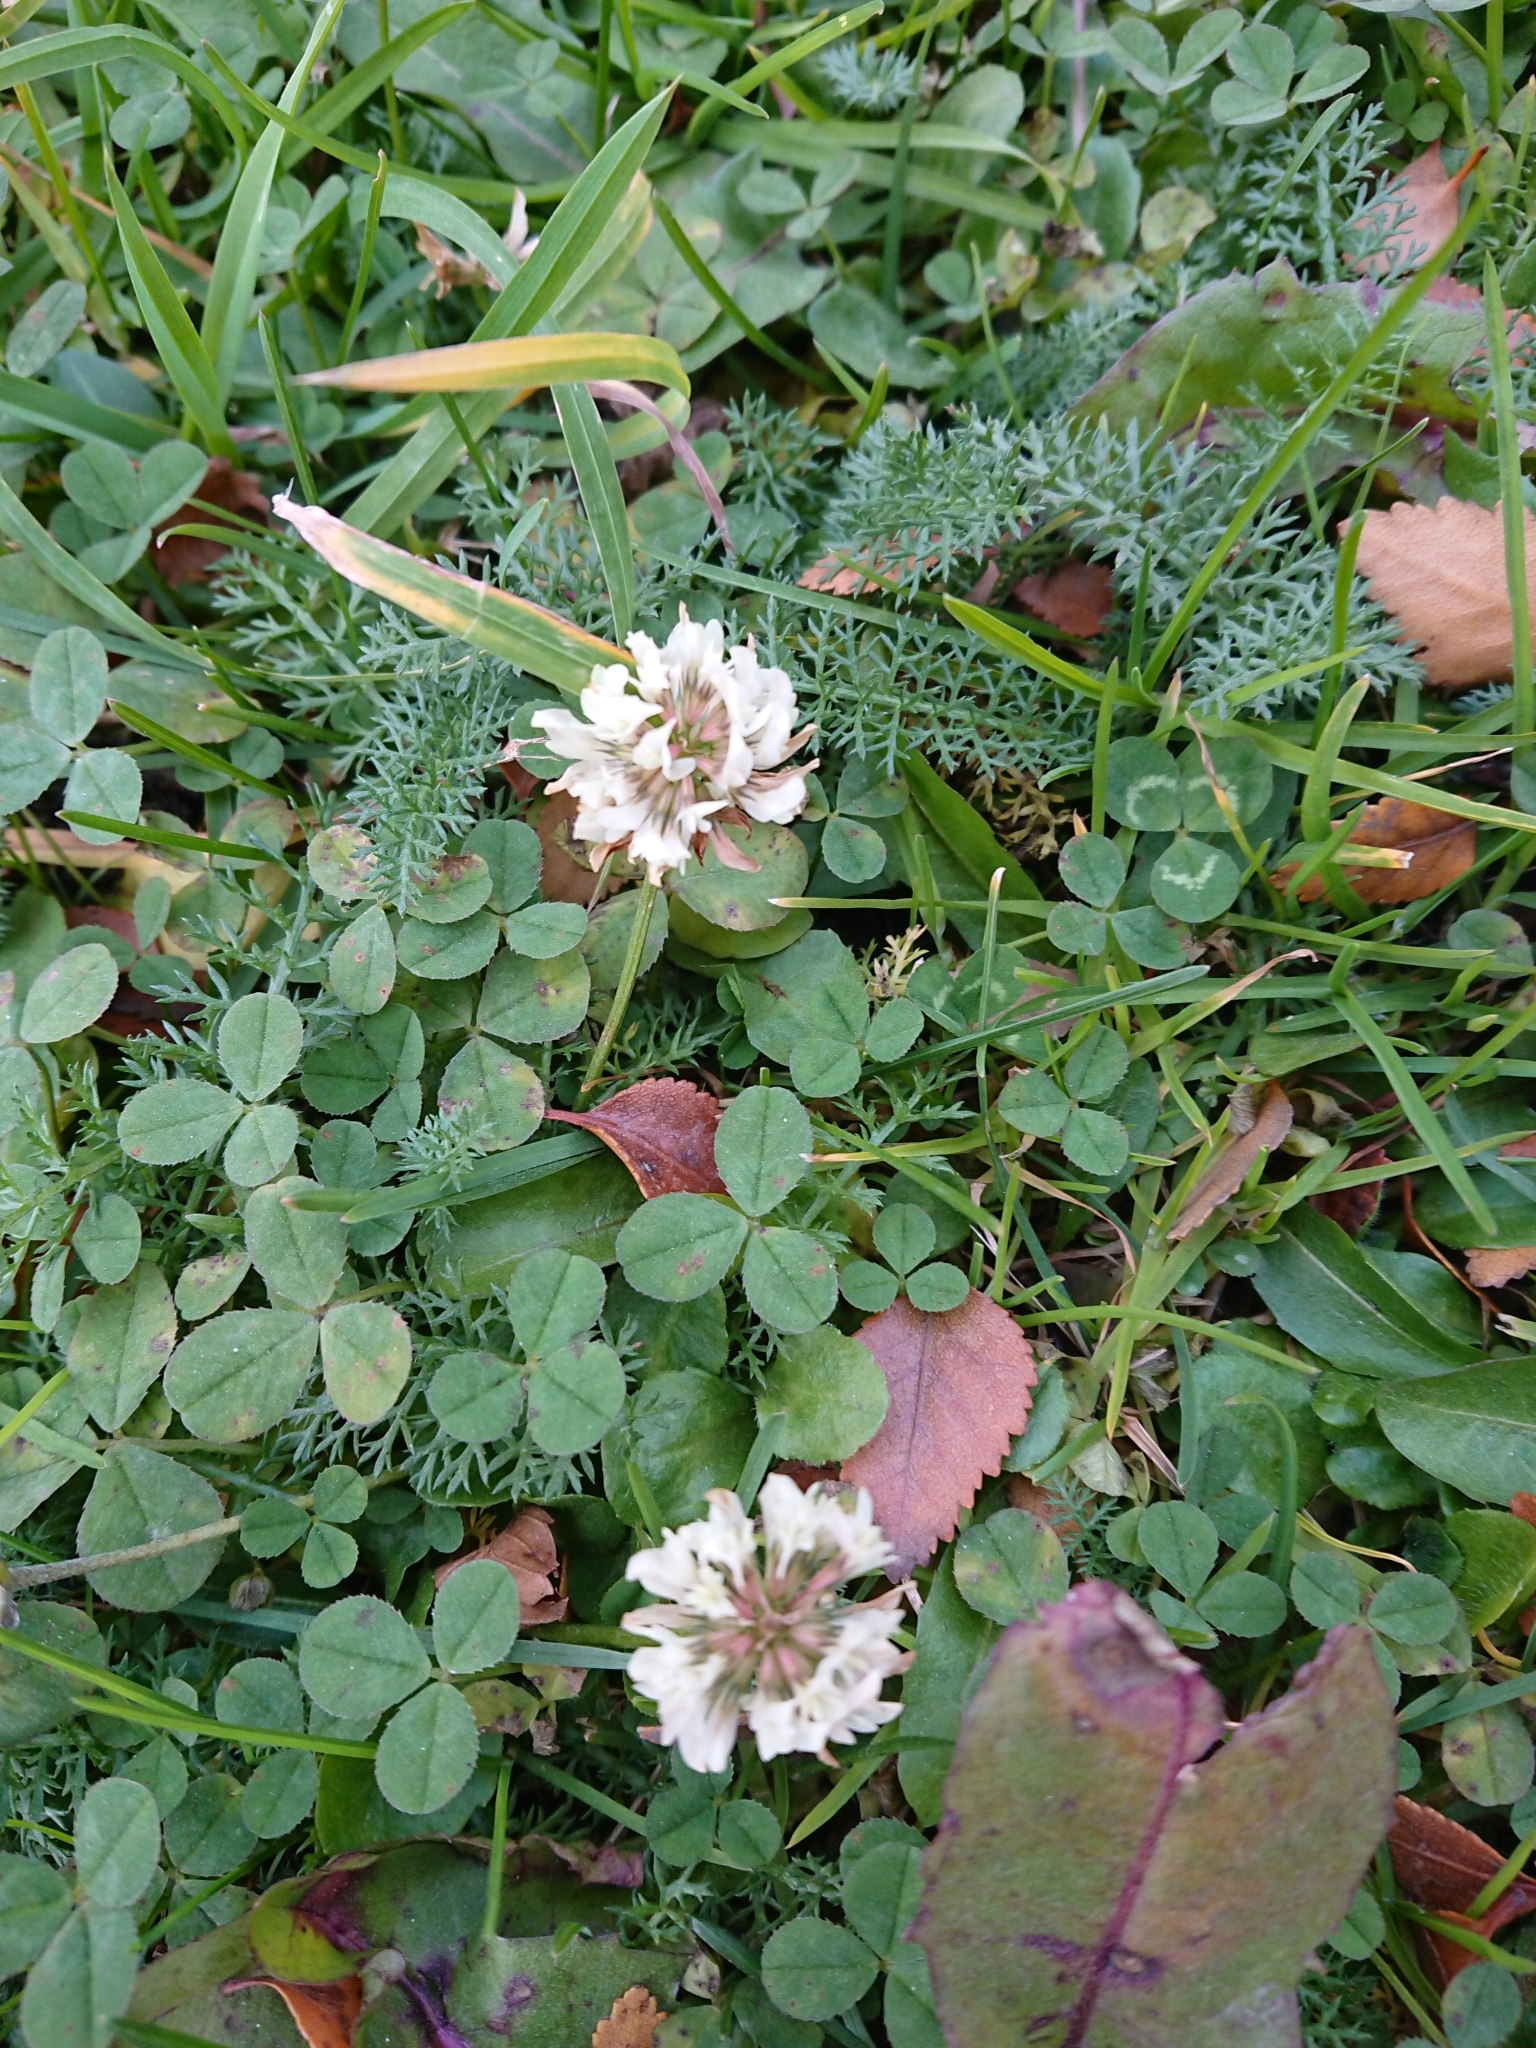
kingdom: Plantae
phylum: Tracheophyta
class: Magnoliopsida
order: Fabales
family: Fabaceae
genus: Trifolium
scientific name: Trifolium repens
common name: White clover
